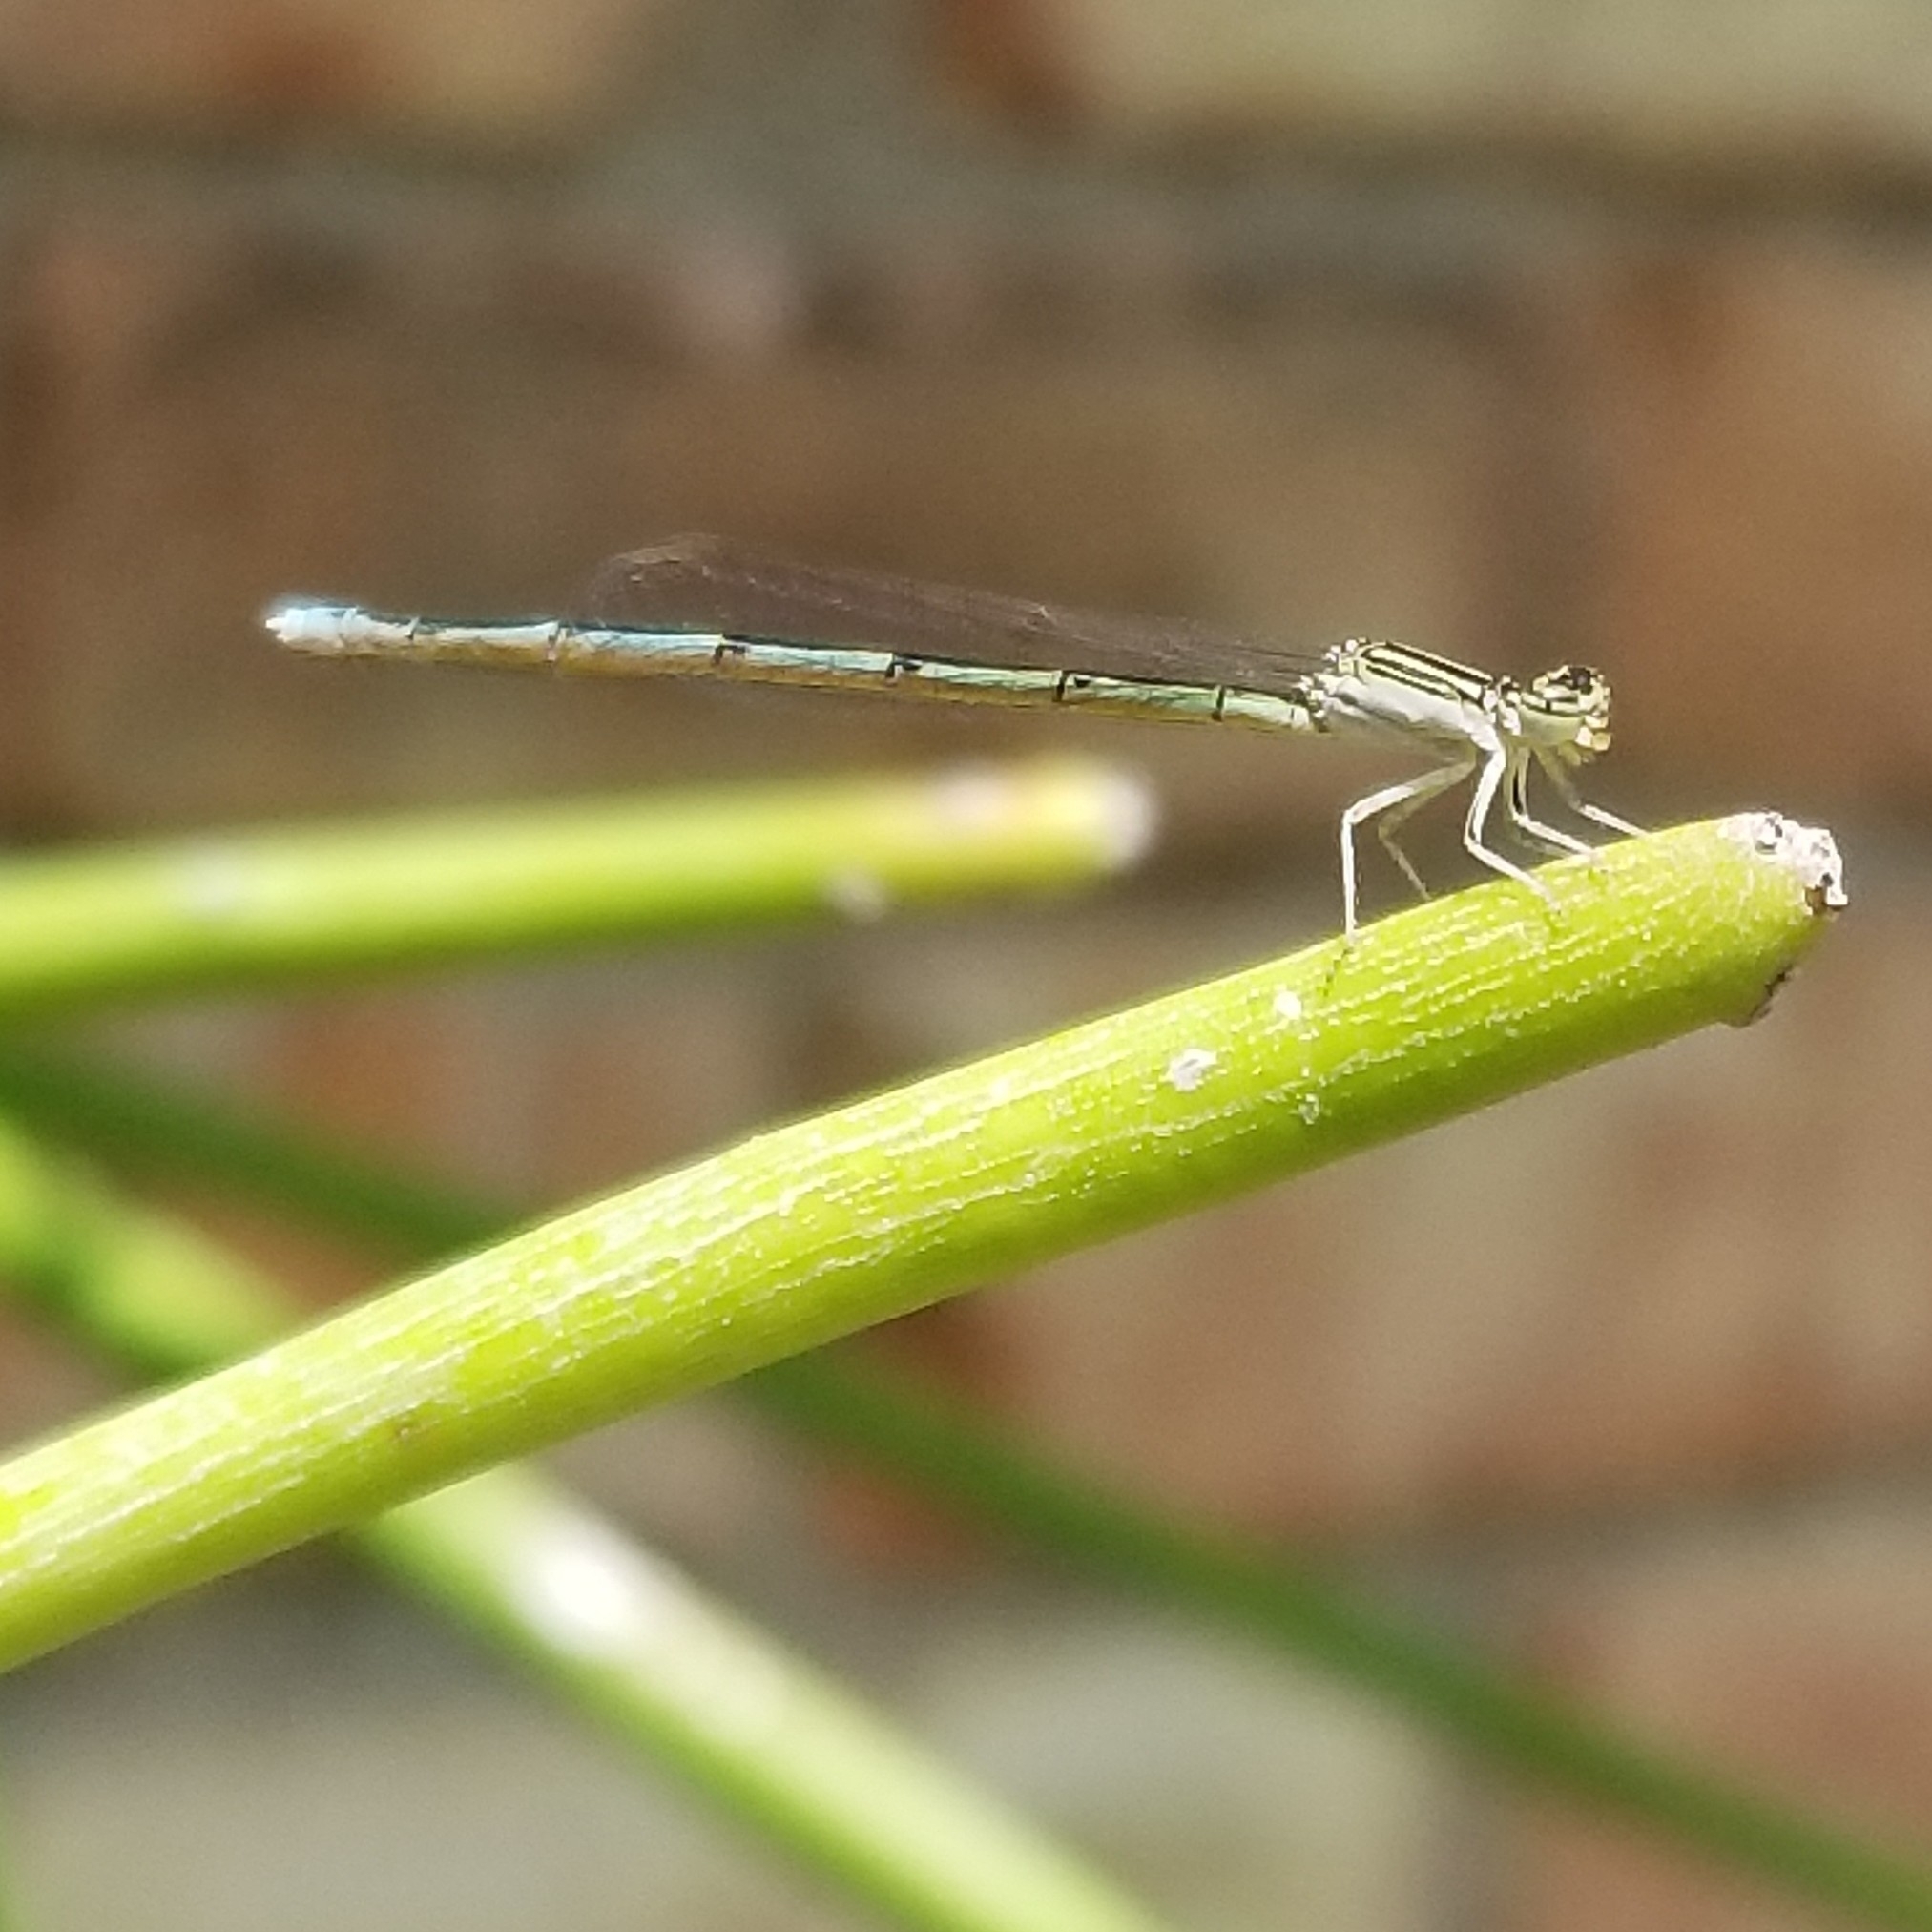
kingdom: Animalia
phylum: Arthropoda
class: Insecta
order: Odonata
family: Coenagrionidae
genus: Enallagma
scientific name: Enallagma basidens
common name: Double-striped bluet
